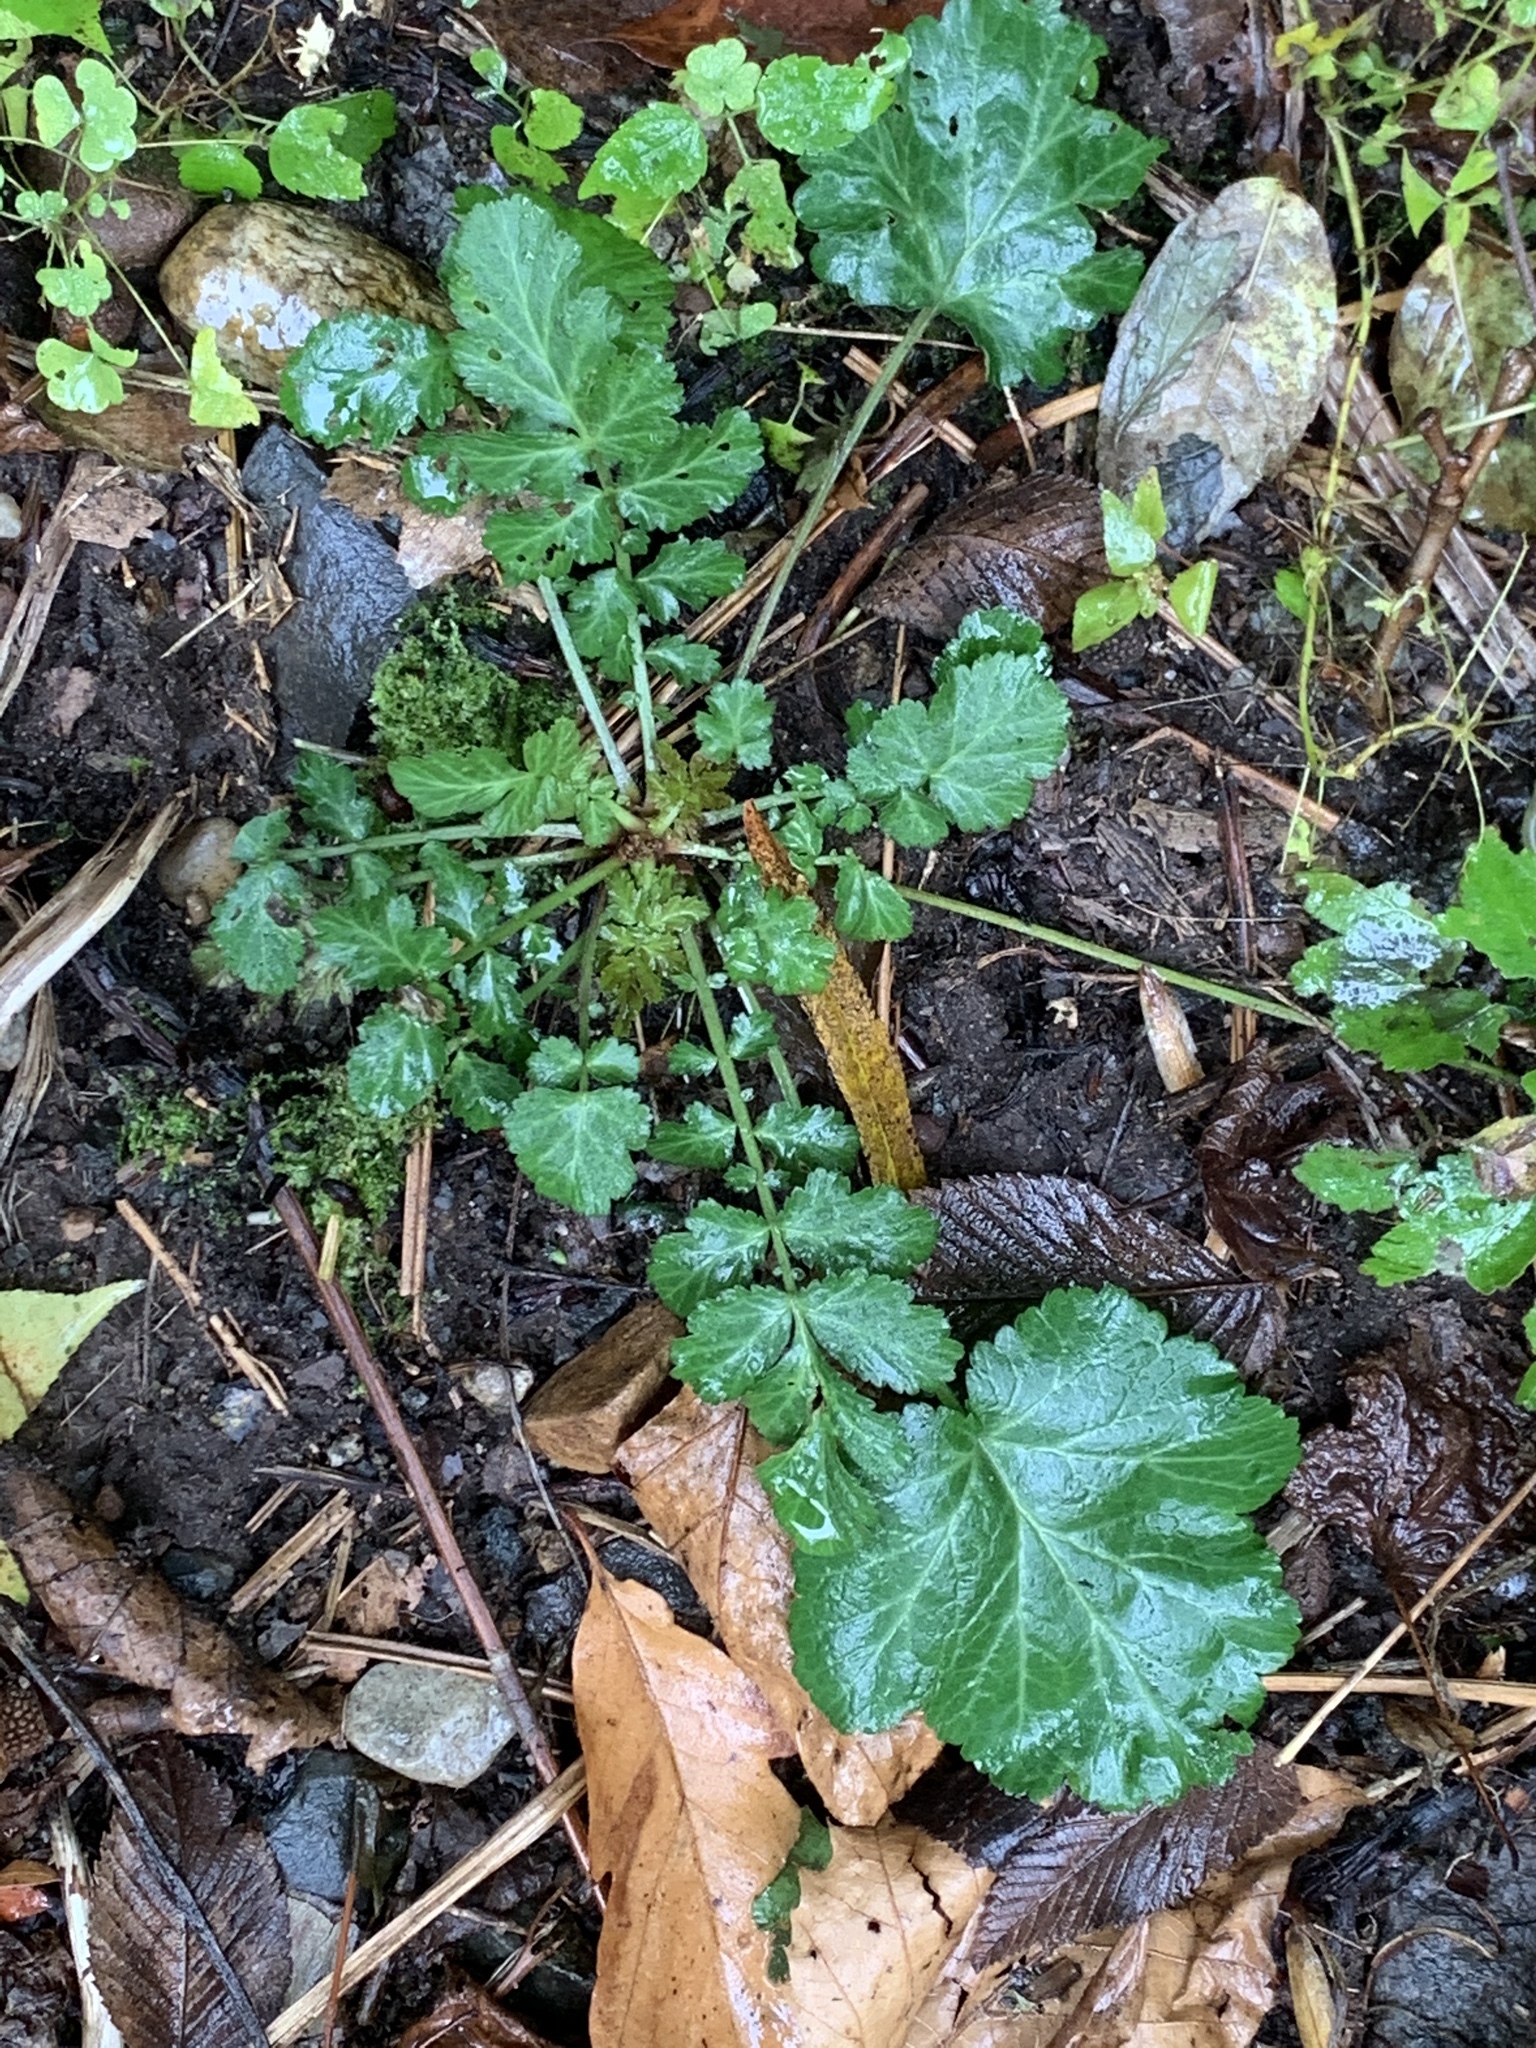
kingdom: Plantae
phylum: Tracheophyta
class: Magnoliopsida
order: Rosales
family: Rosaceae
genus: Geum
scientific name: Geum canadense
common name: White avens
